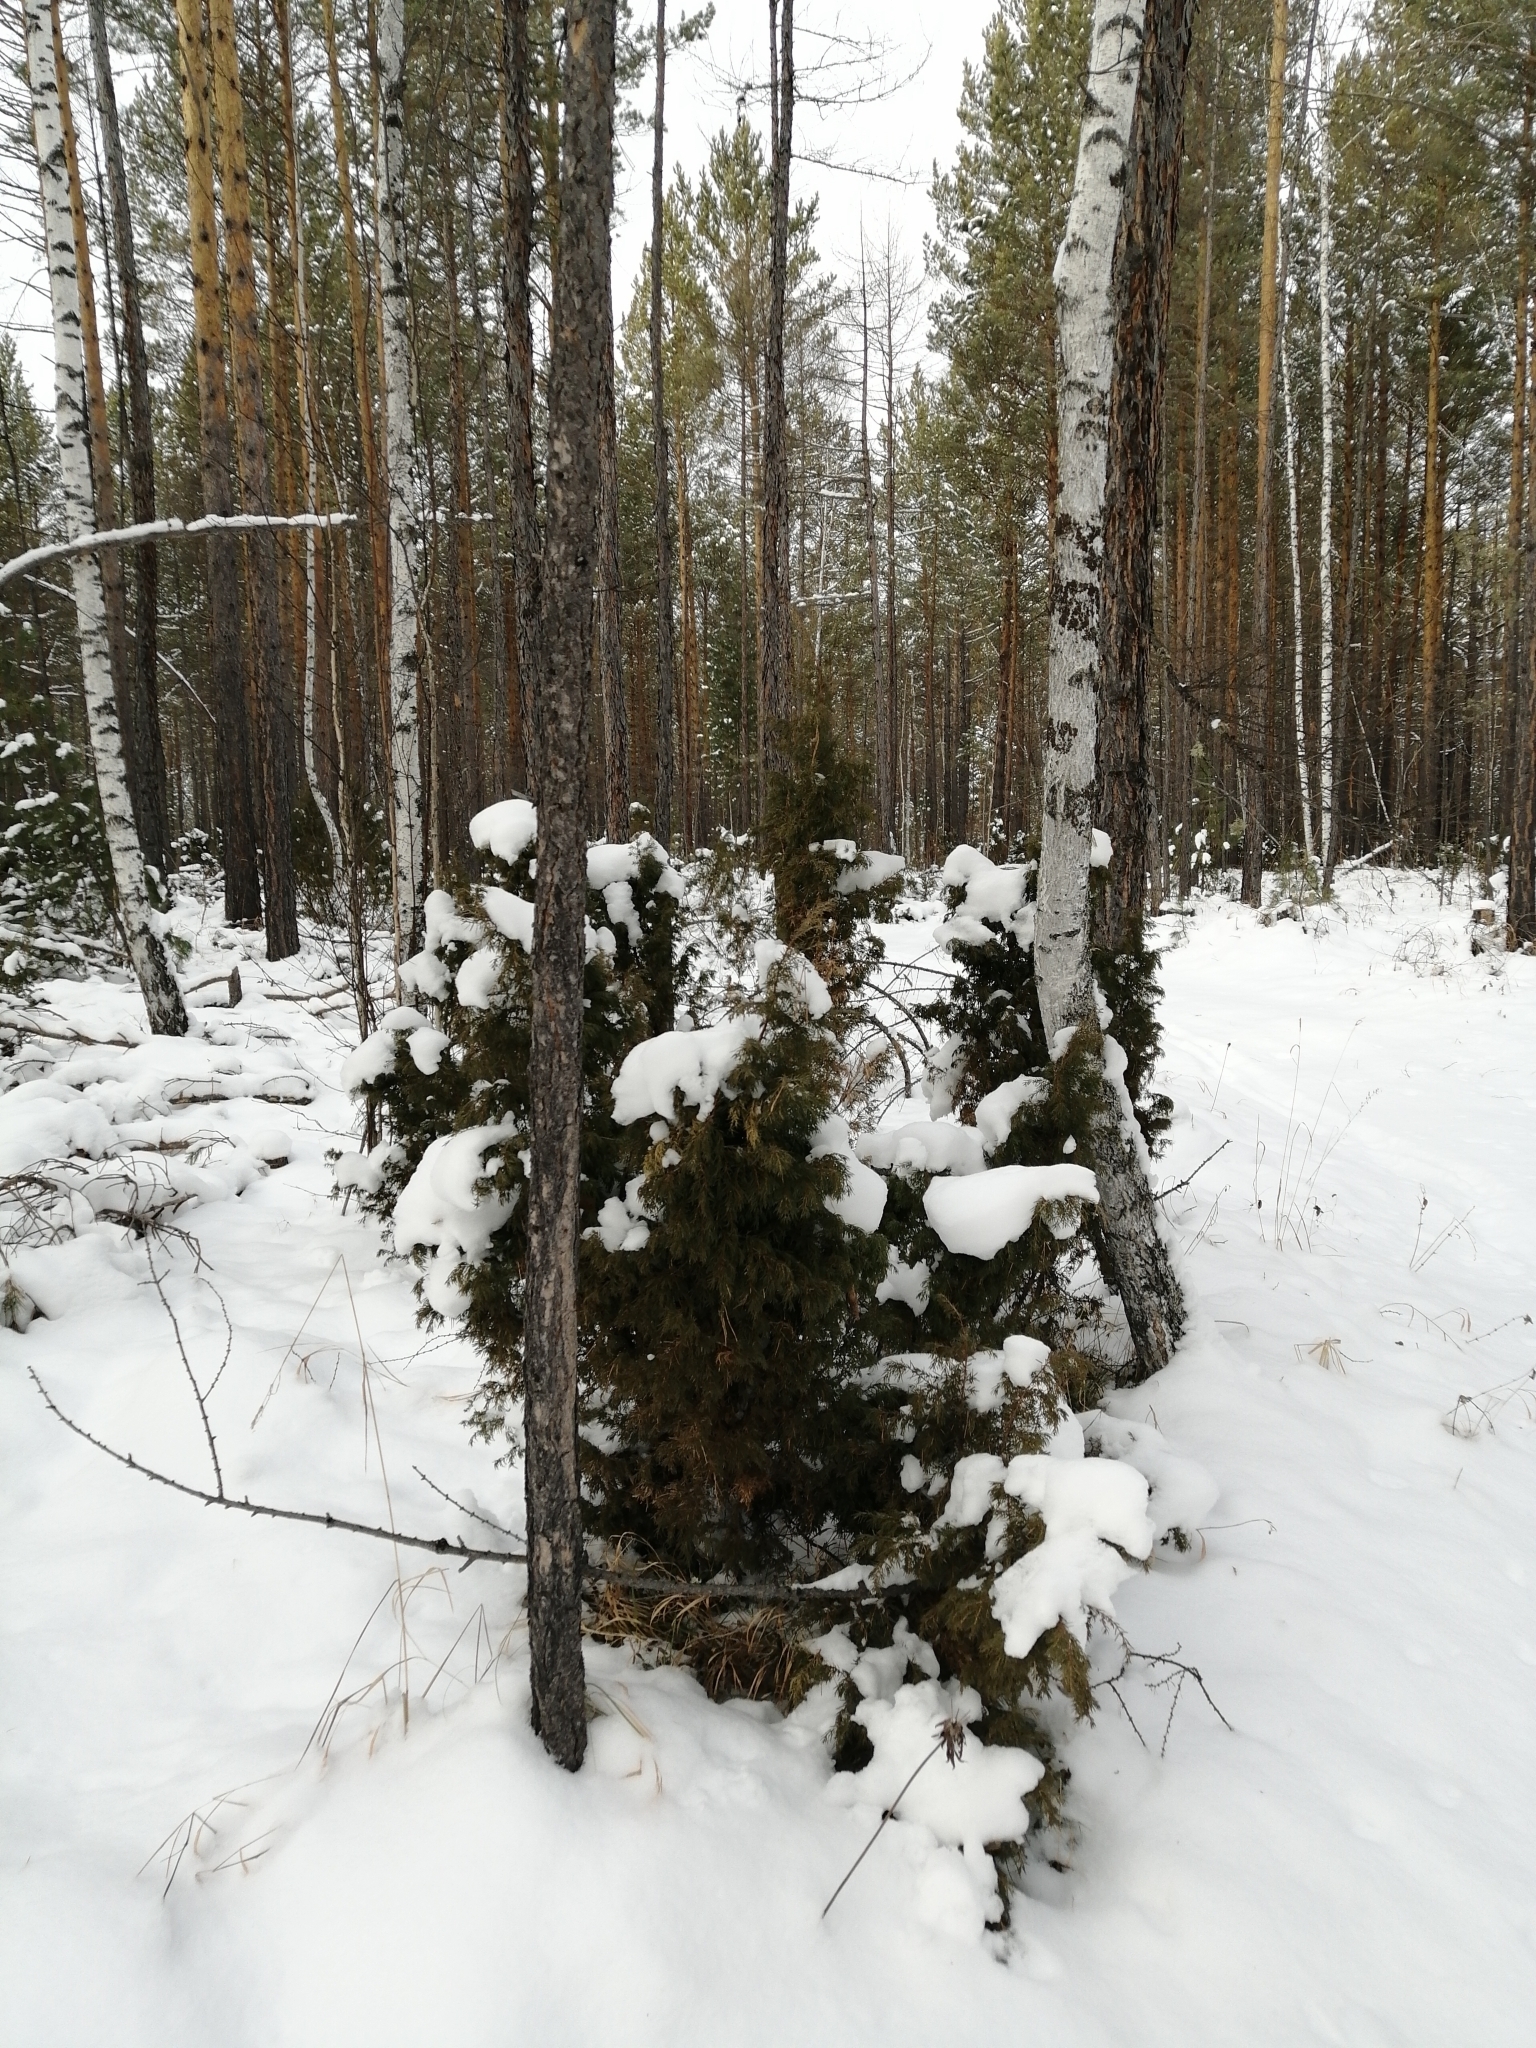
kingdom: Plantae
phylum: Tracheophyta
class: Pinopsida
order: Pinales
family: Cupressaceae
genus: Juniperus
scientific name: Juniperus communis
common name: Common juniper
